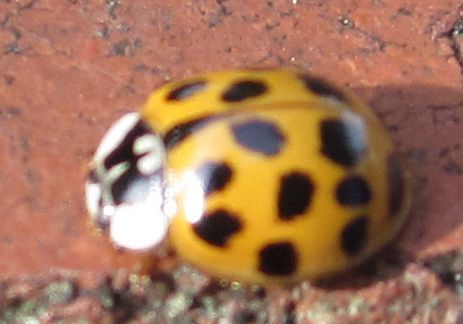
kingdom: Animalia
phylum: Arthropoda
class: Insecta
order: Coleoptera
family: Coccinellidae
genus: Harmonia
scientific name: Harmonia axyridis
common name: Harlequin ladybird
